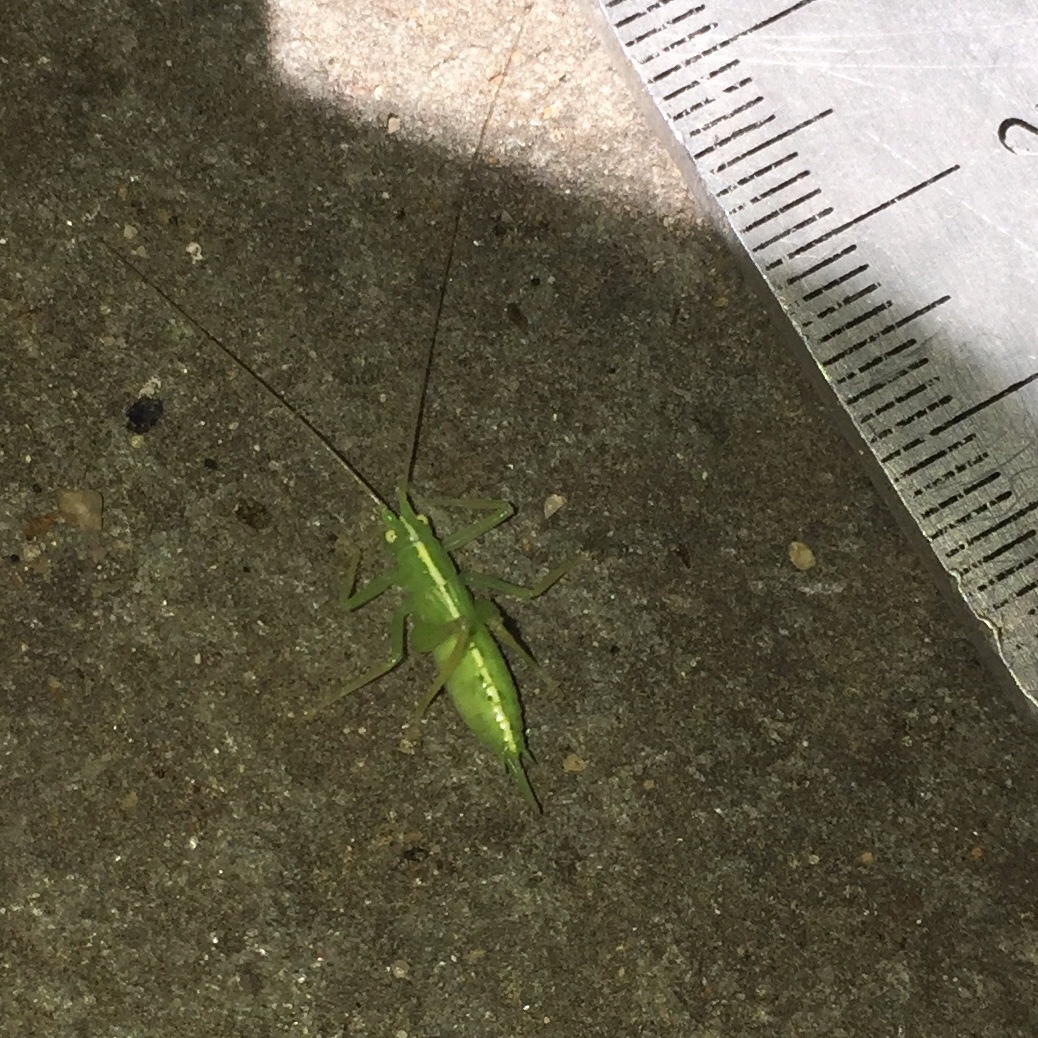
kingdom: Animalia
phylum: Arthropoda
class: Insecta
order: Orthoptera
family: Tettigoniidae
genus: Meconema
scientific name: Meconema thalassinum
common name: Oak bush-cricket
